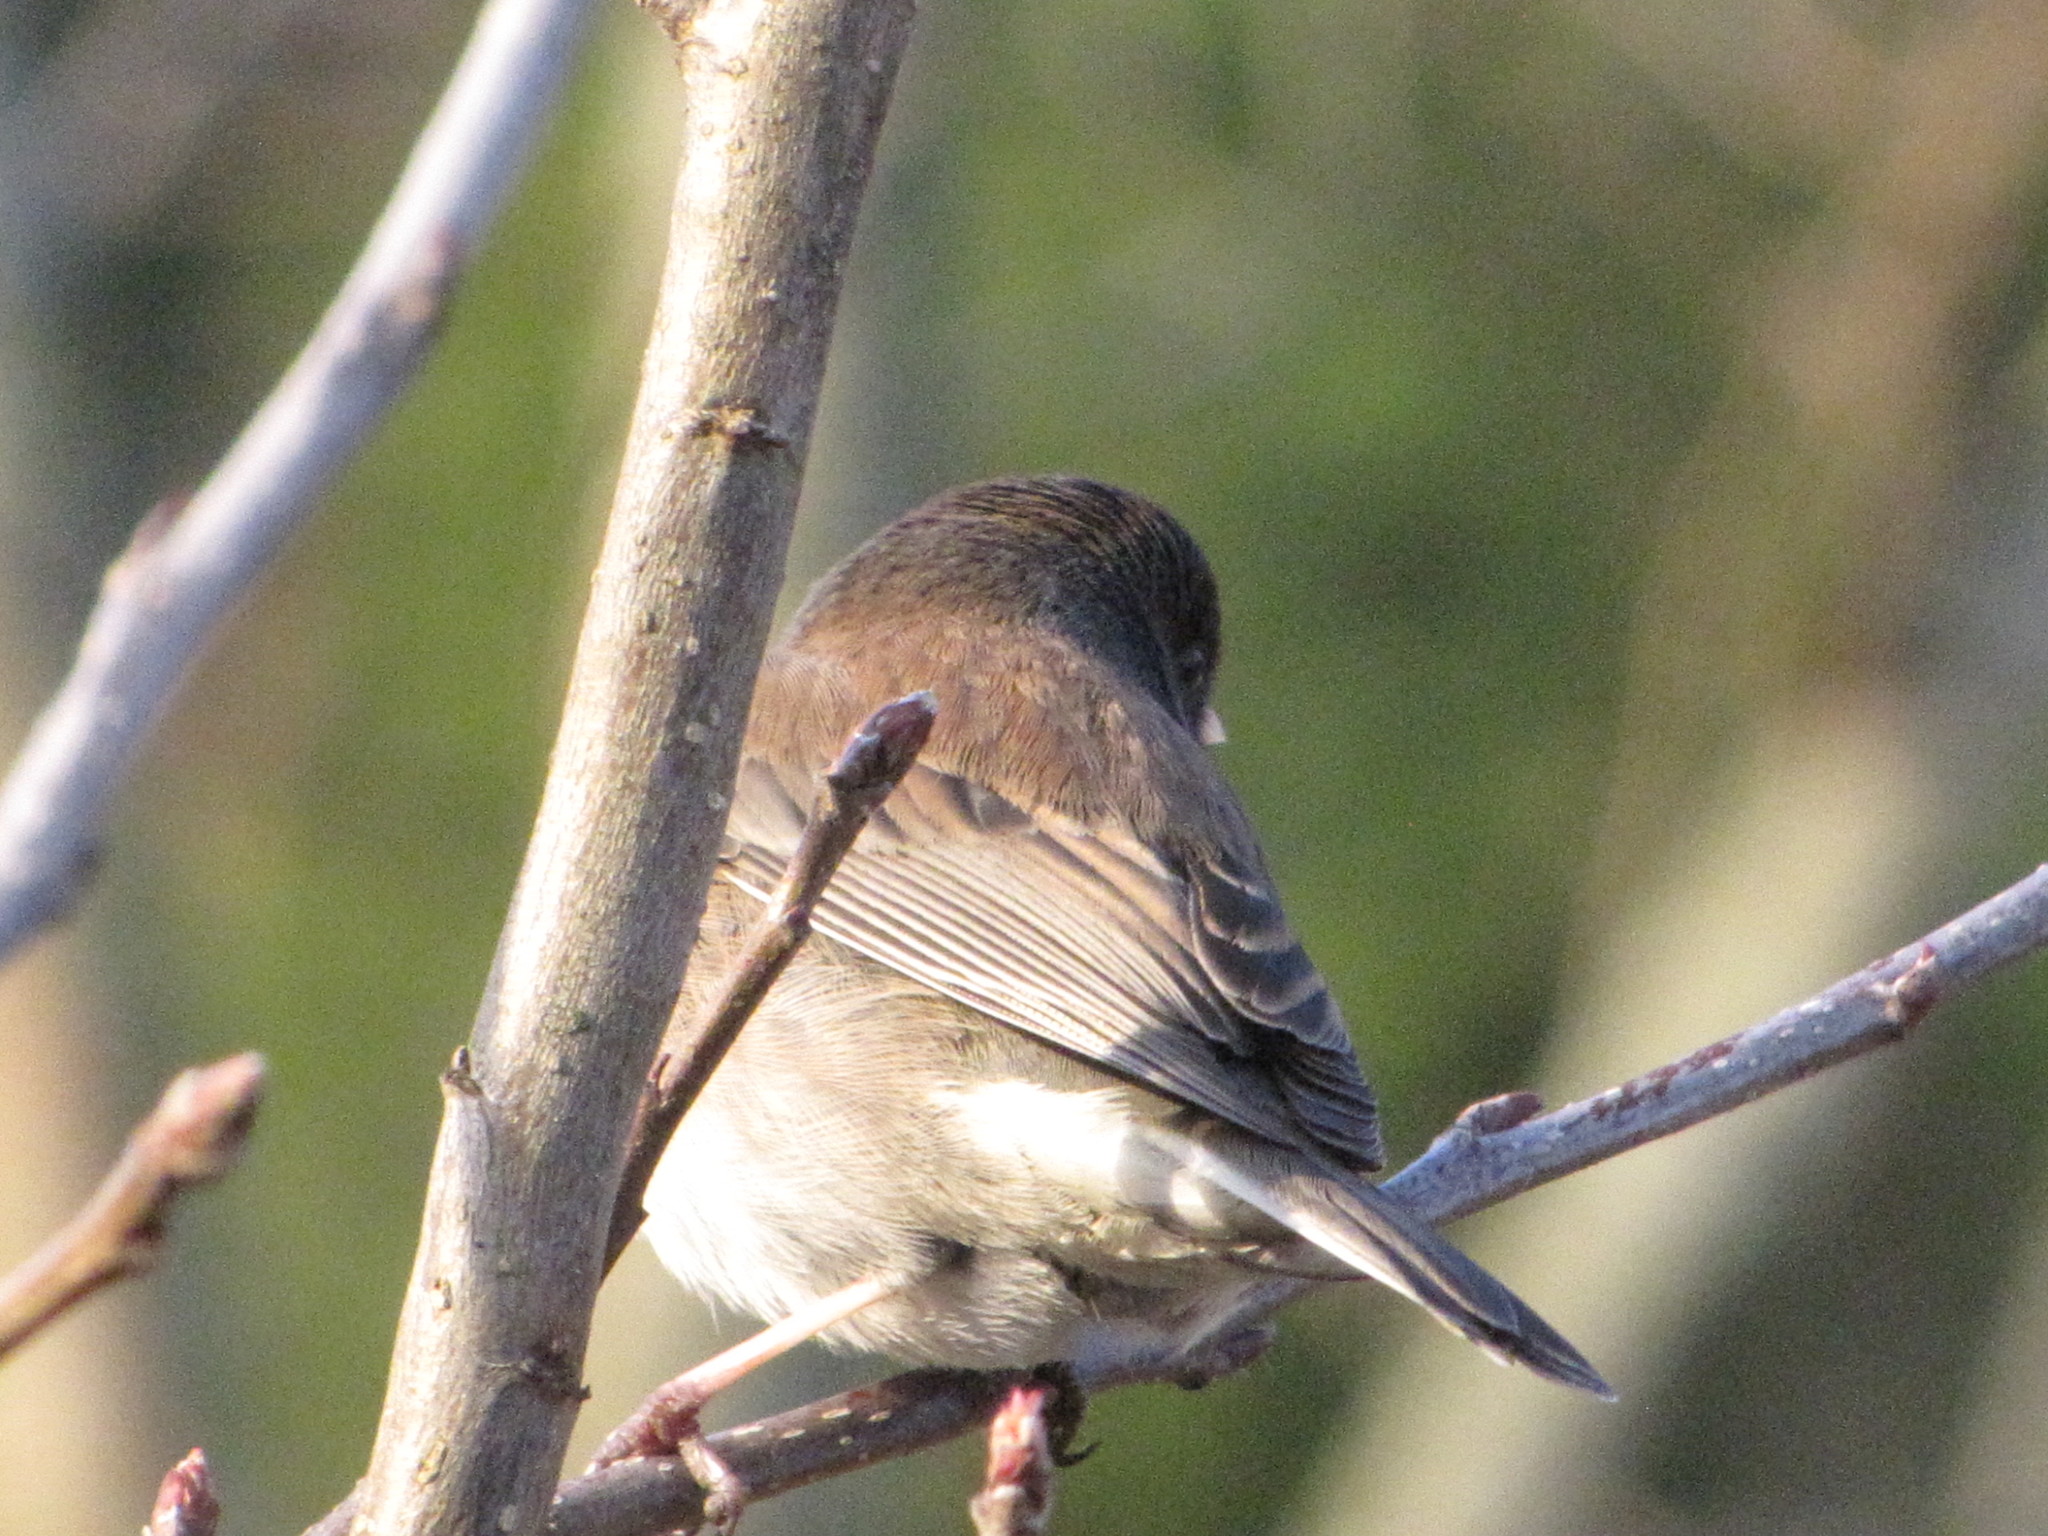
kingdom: Animalia
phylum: Chordata
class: Aves
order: Passeriformes
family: Passerellidae
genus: Junco
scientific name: Junco hyemalis
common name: Dark-eyed junco
